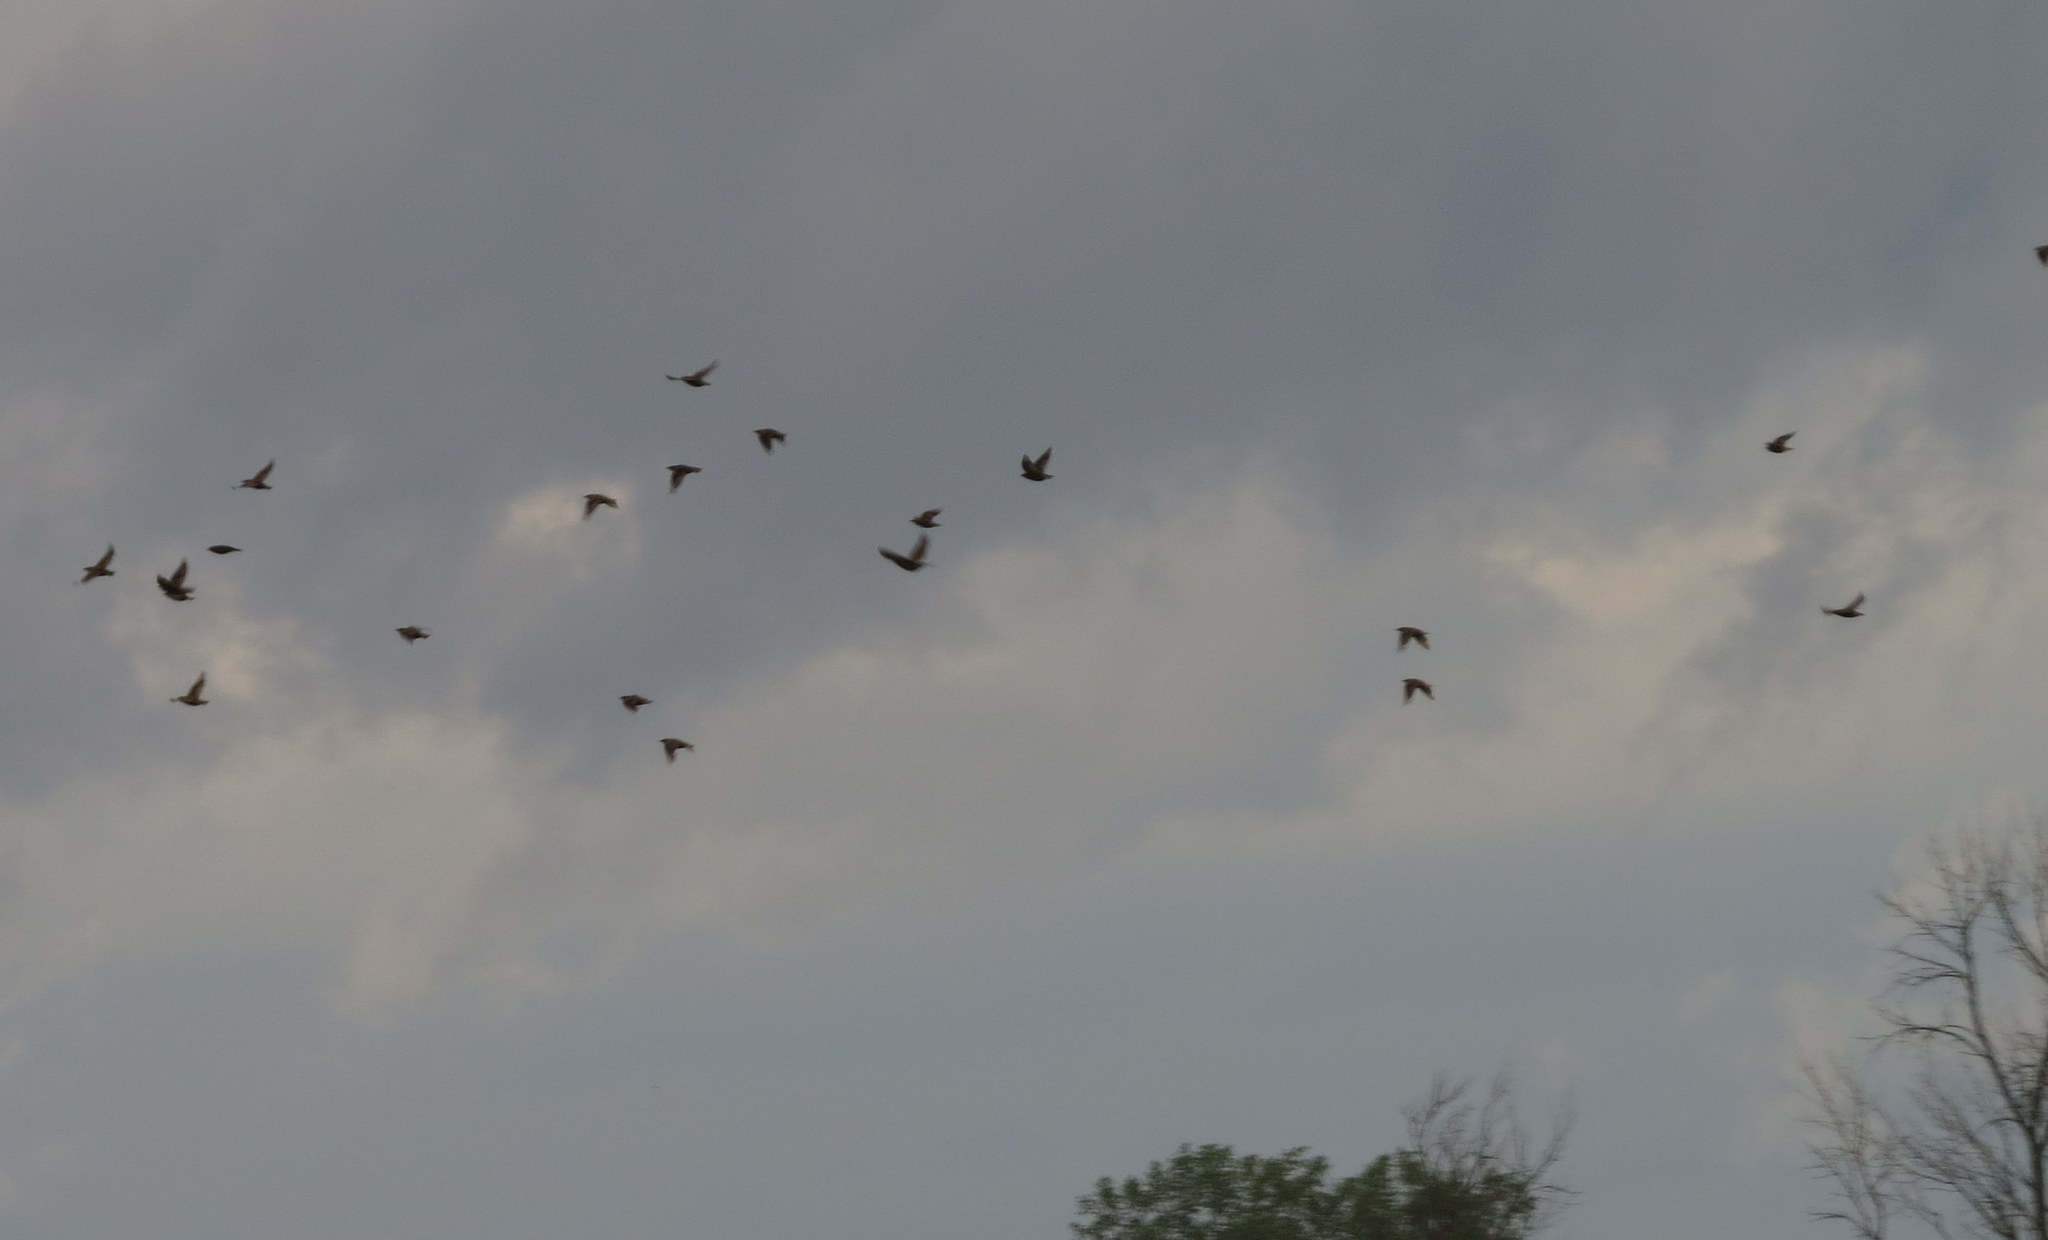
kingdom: Animalia
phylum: Chordata
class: Aves
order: Passeriformes
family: Sturnidae
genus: Sturnus
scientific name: Sturnus vulgaris
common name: Common starling
